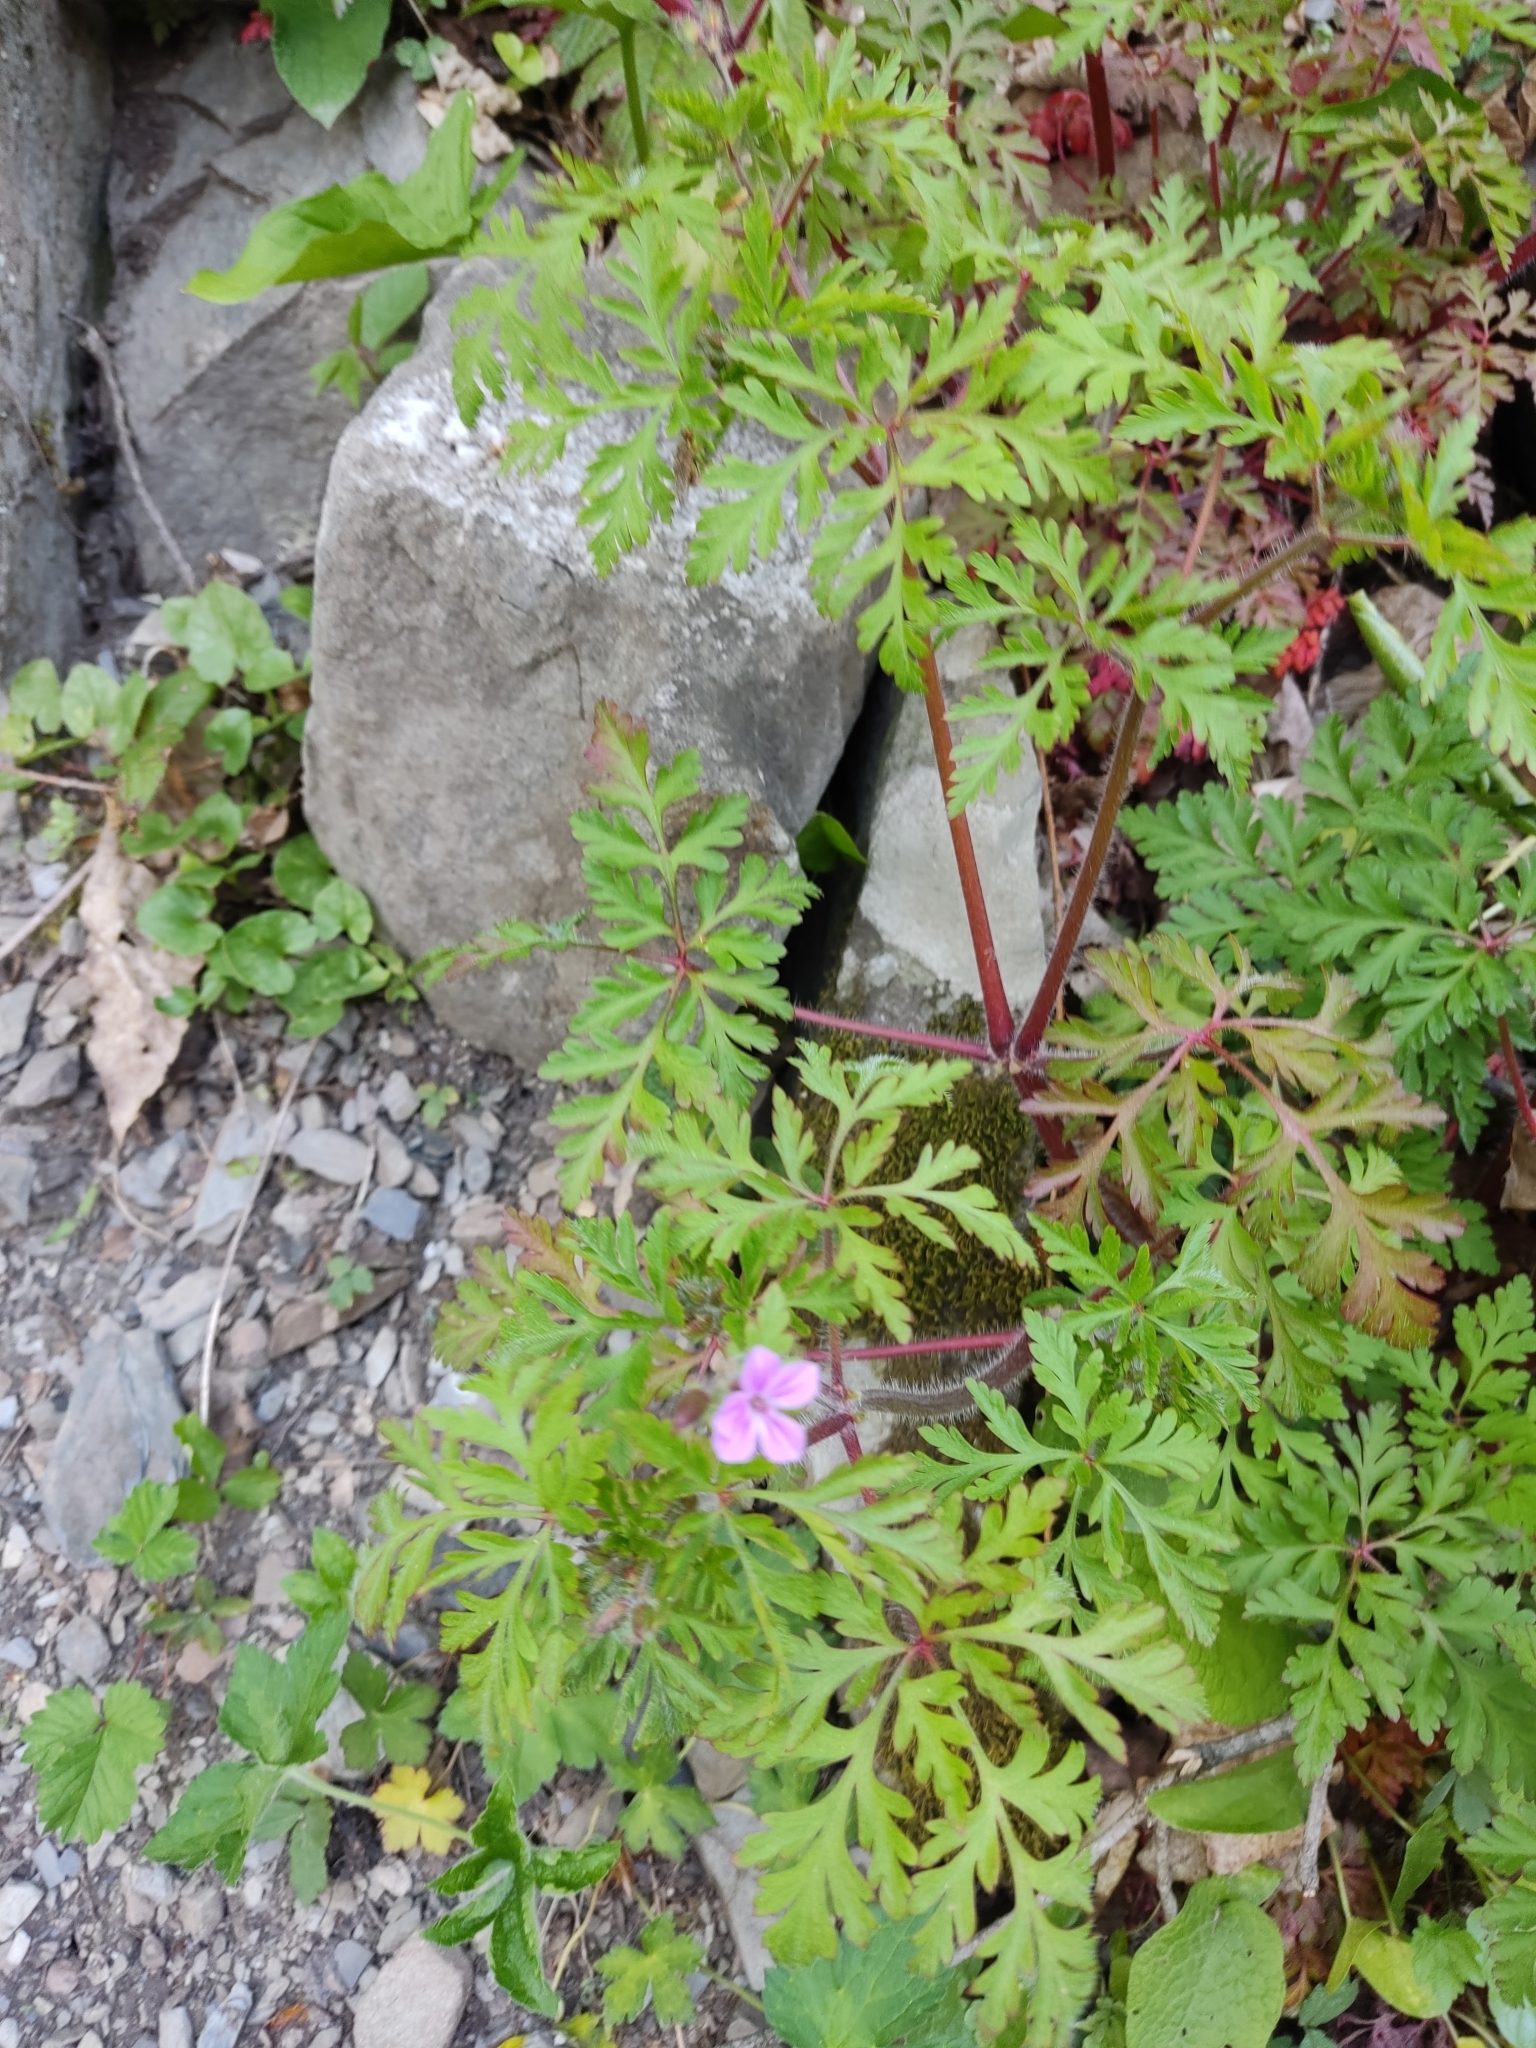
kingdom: Plantae
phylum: Tracheophyta
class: Magnoliopsida
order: Geraniales
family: Geraniaceae
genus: Geranium
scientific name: Geranium robertianum
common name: Herb-robert
